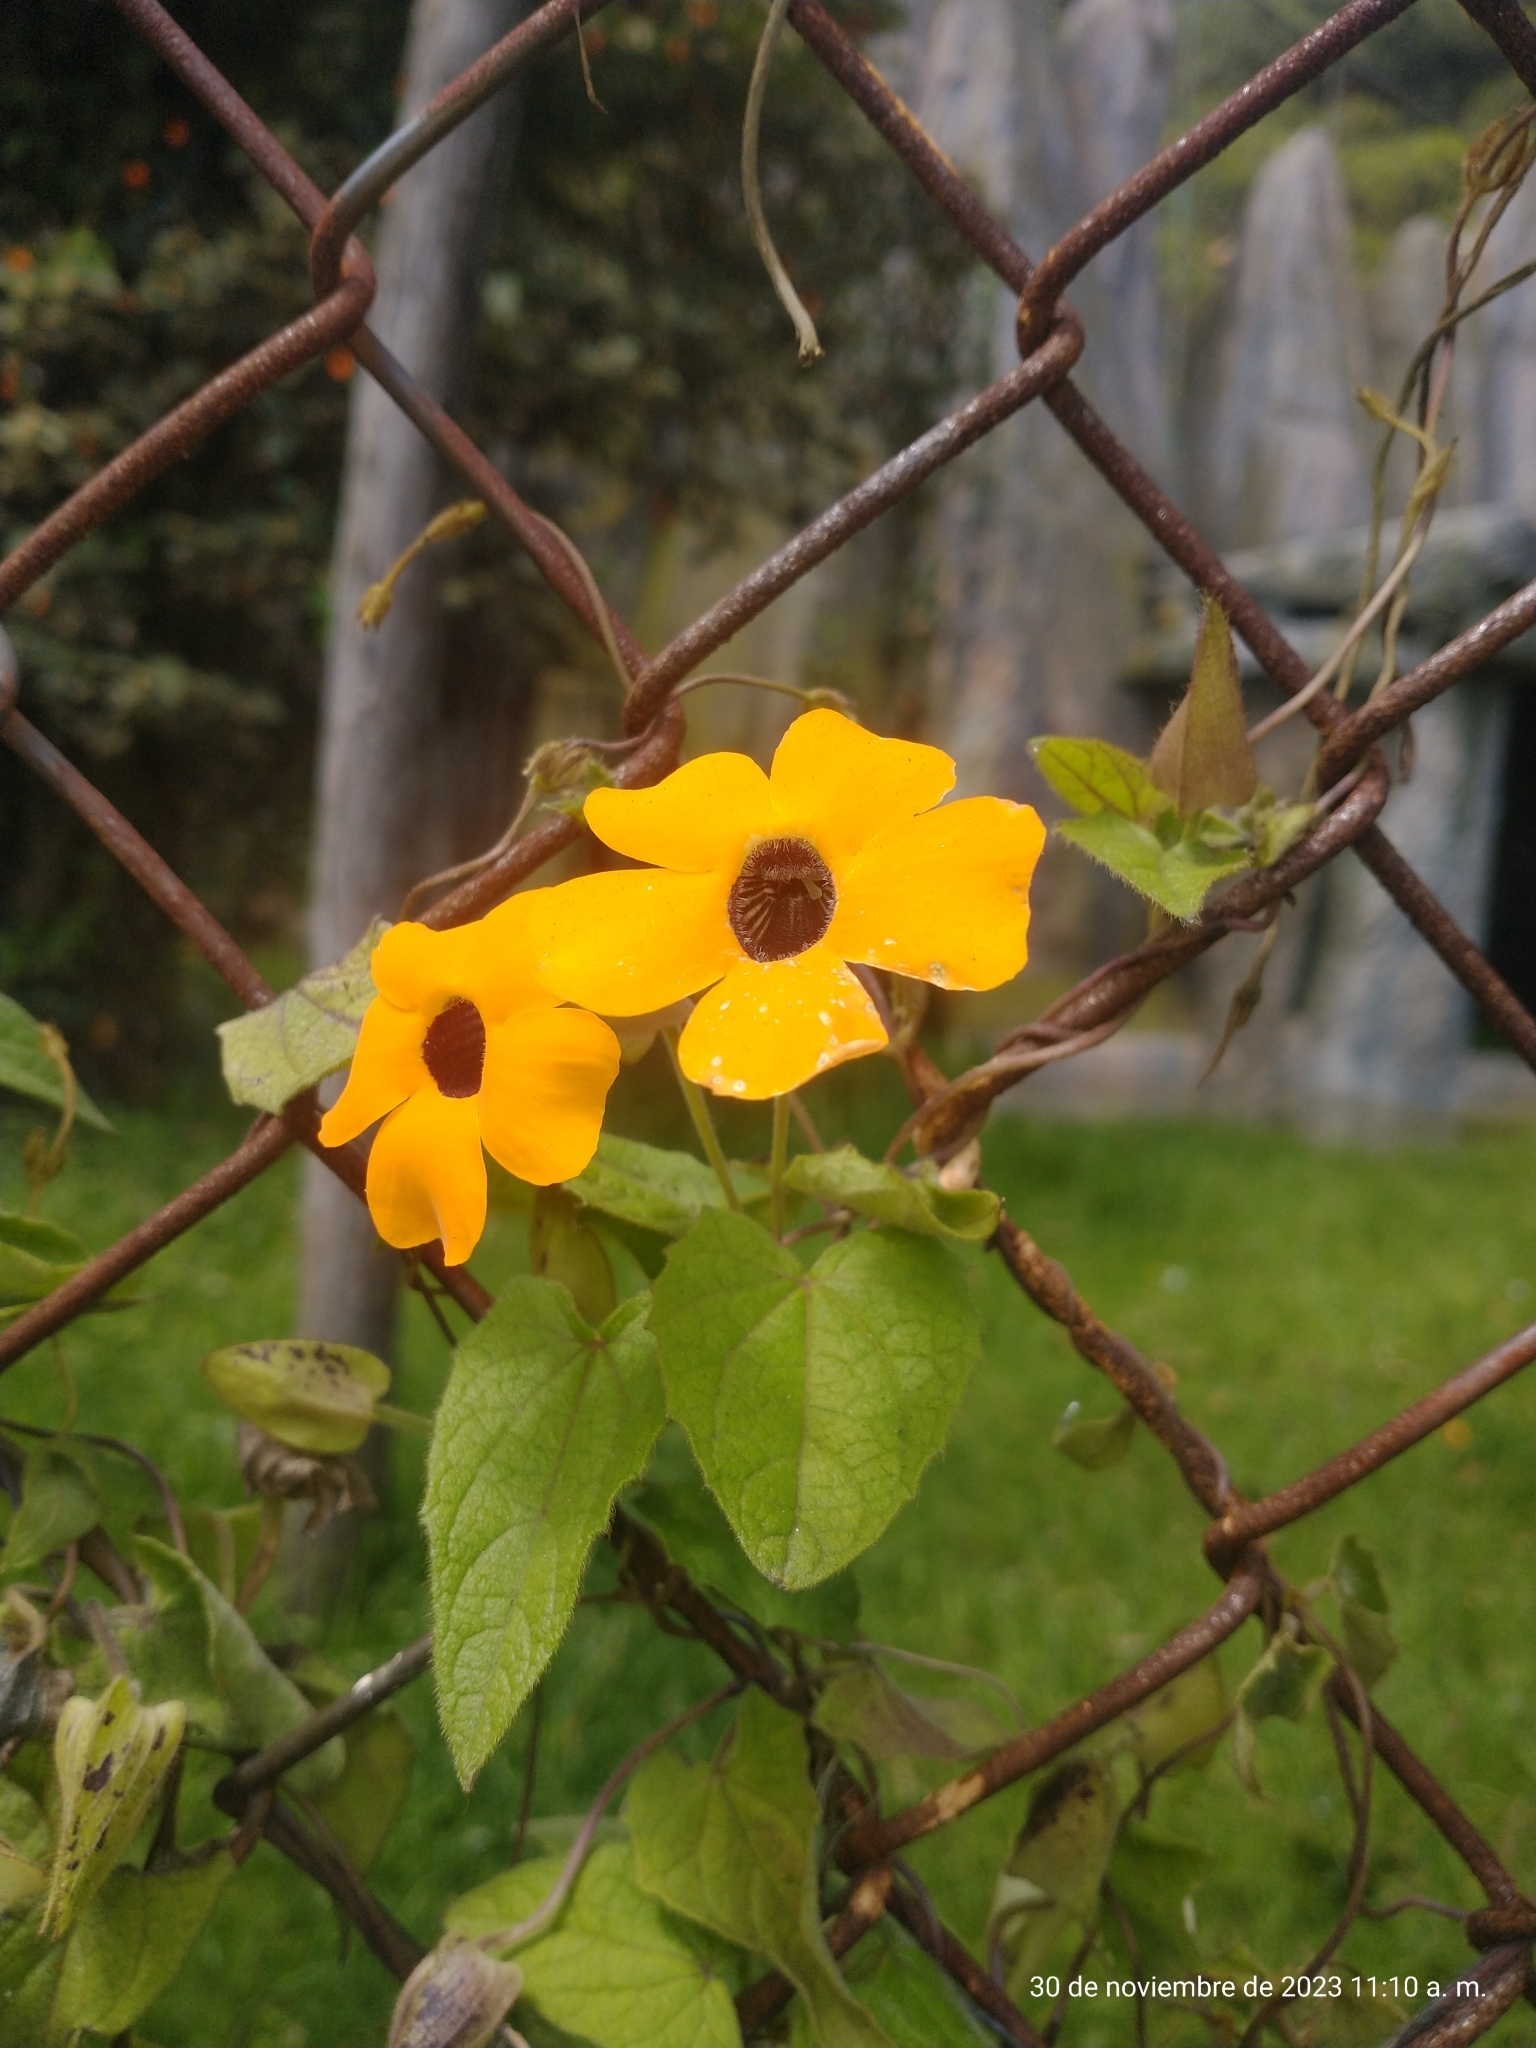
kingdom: Plantae
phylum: Tracheophyta
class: Magnoliopsida
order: Lamiales
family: Acanthaceae
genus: Thunbergia
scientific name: Thunbergia alata
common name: Blackeyed susan vine
